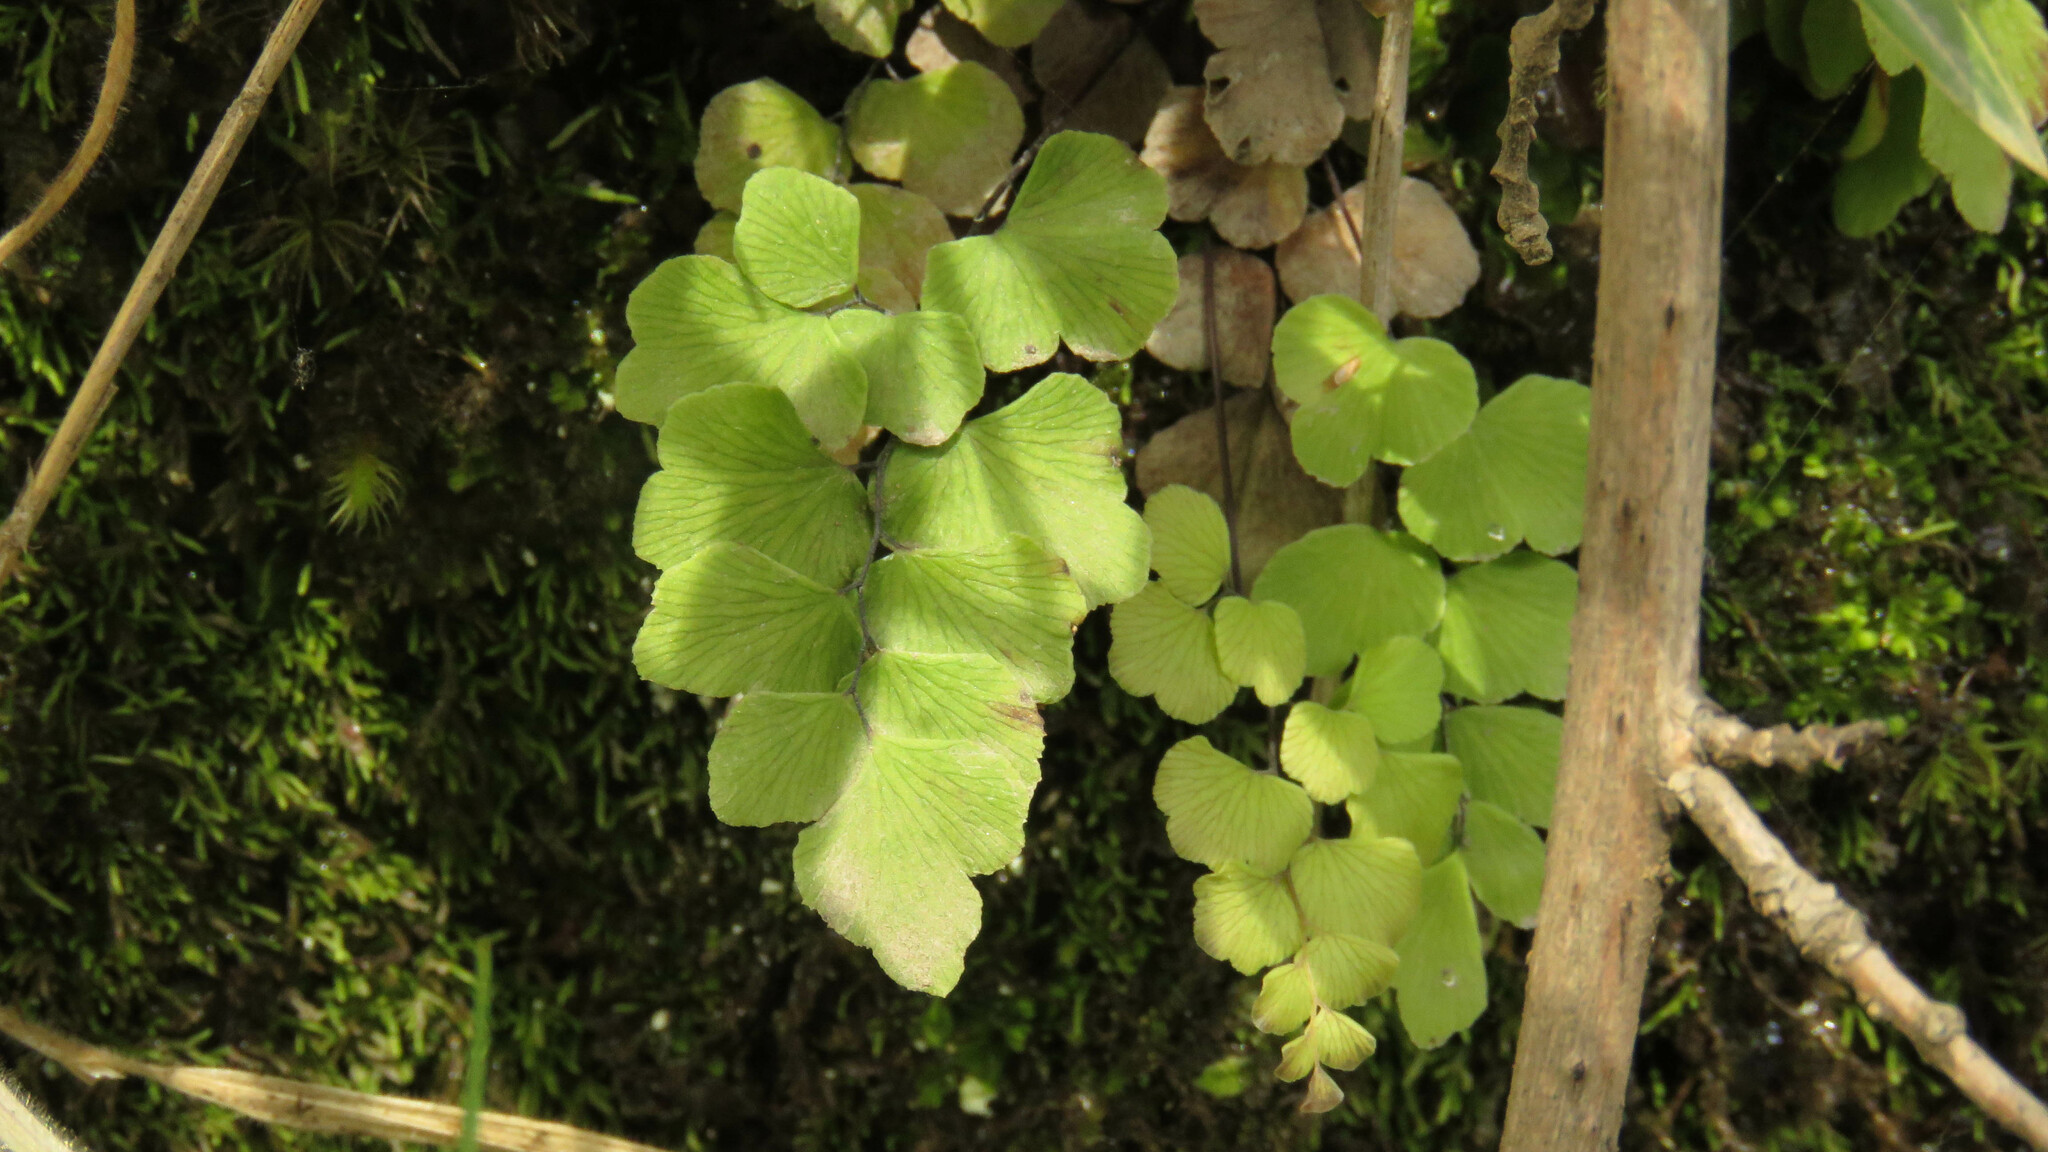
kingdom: Plantae
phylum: Tracheophyta
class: Polypodiopsida
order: Polypodiales
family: Pteridaceae
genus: Adiantum
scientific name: Adiantum chilense
